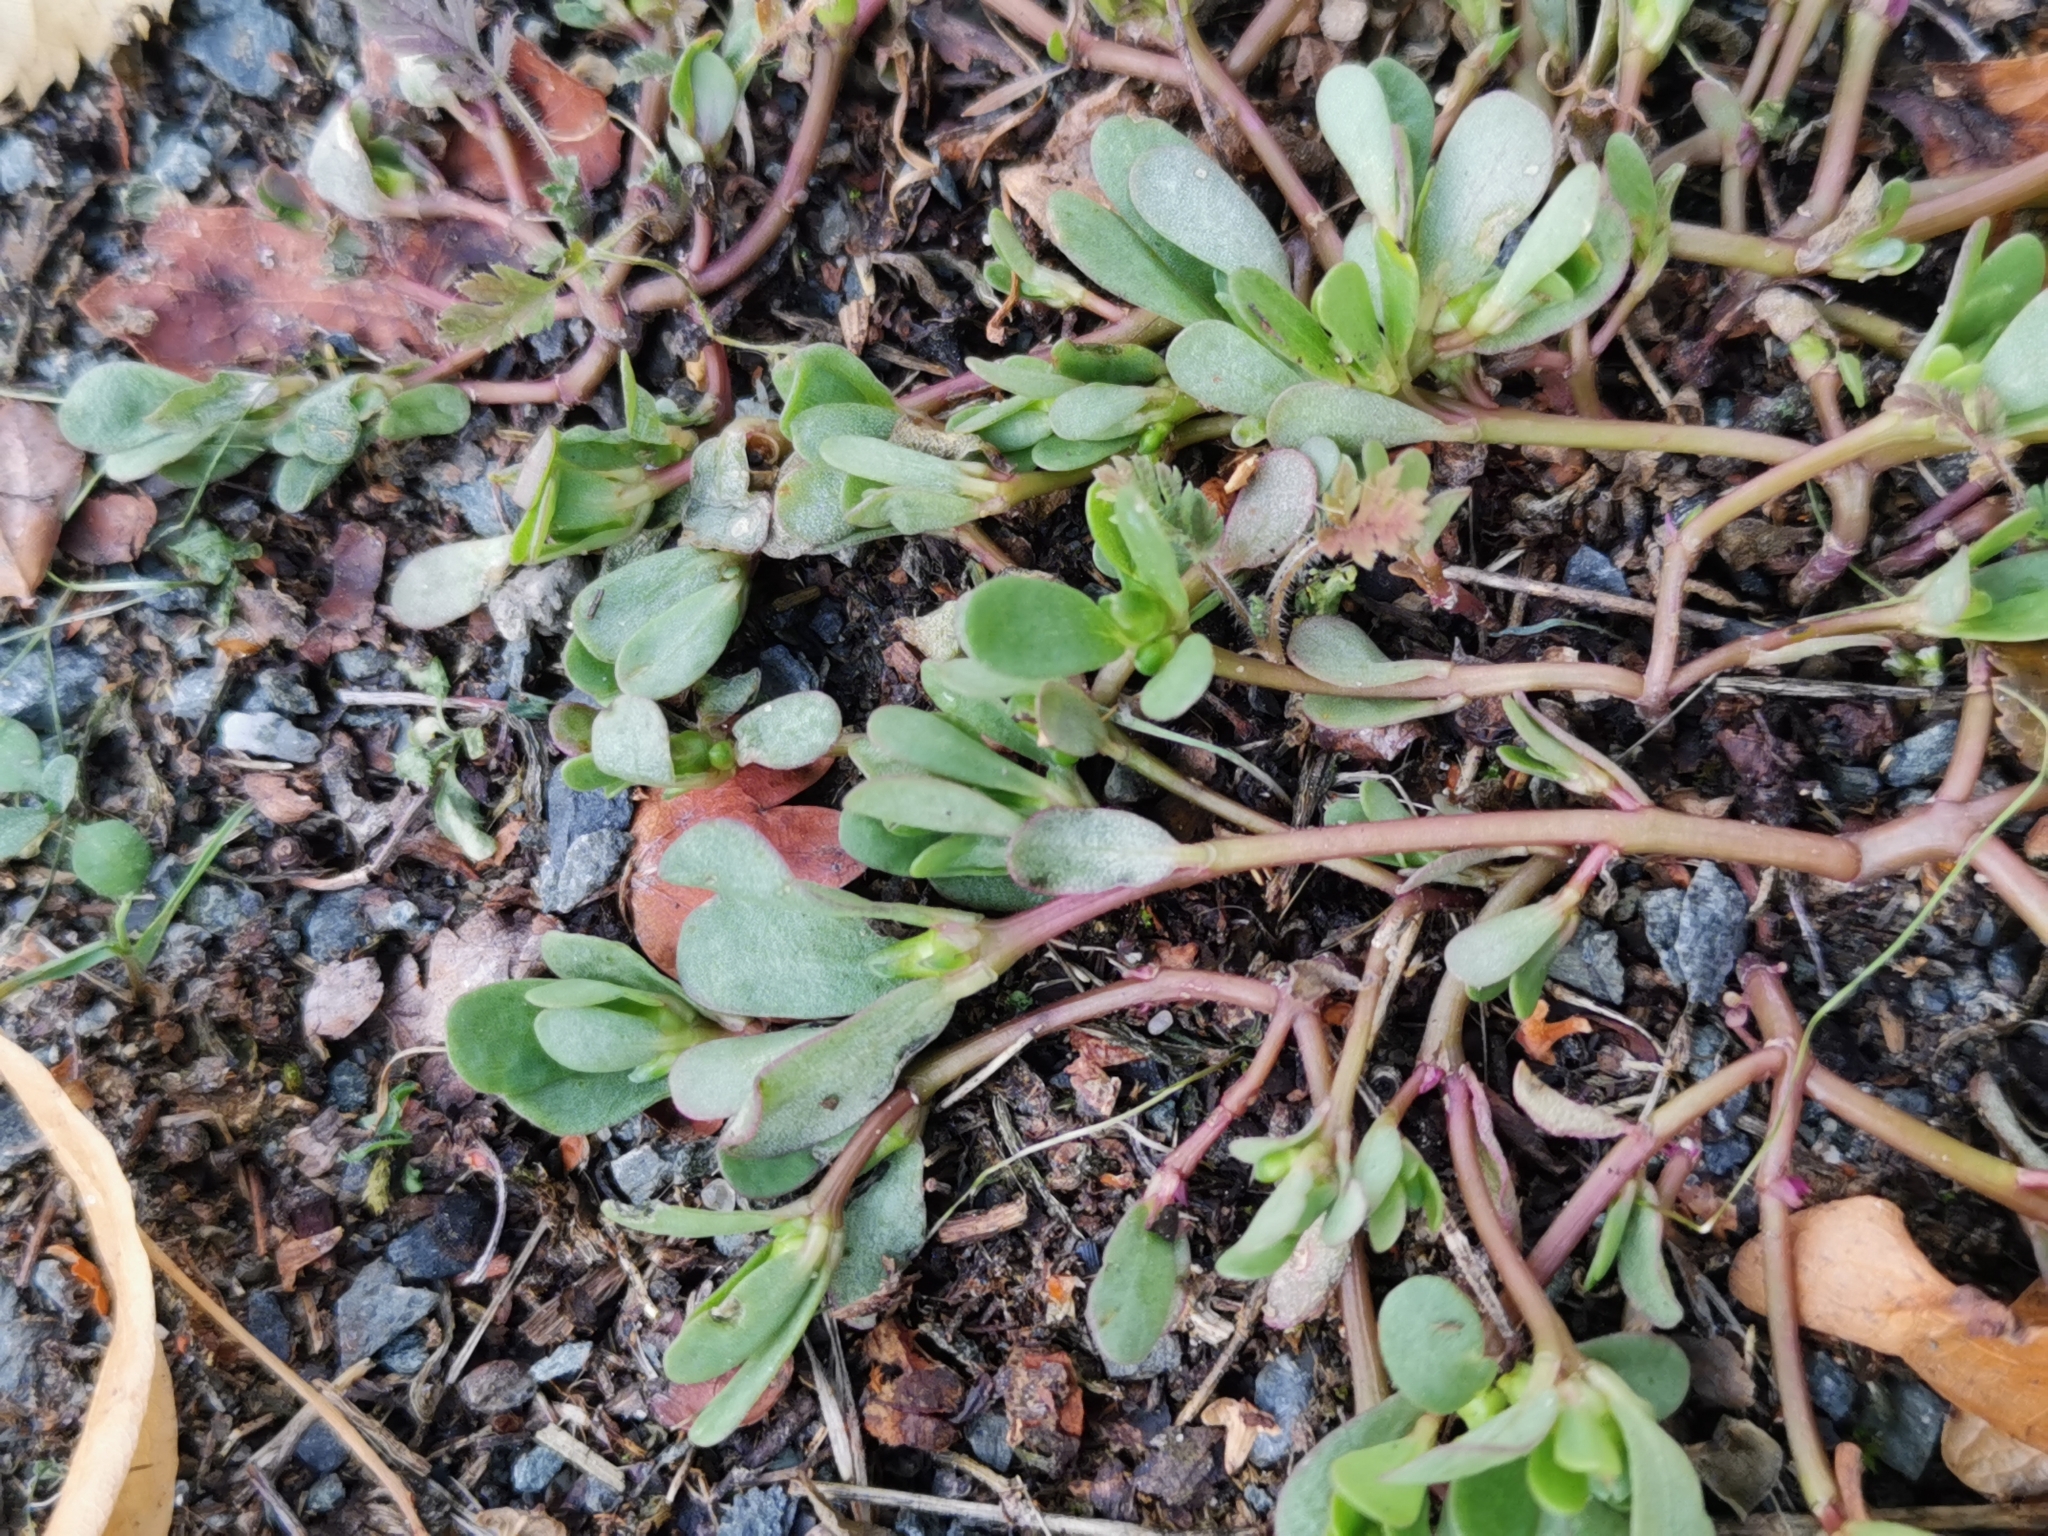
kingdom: Plantae
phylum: Tracheophyta
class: Magnoliopsida
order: Caryophyllales
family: Portulacaceae
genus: Portulaca
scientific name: Portulaca oleracea
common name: Common purslane
